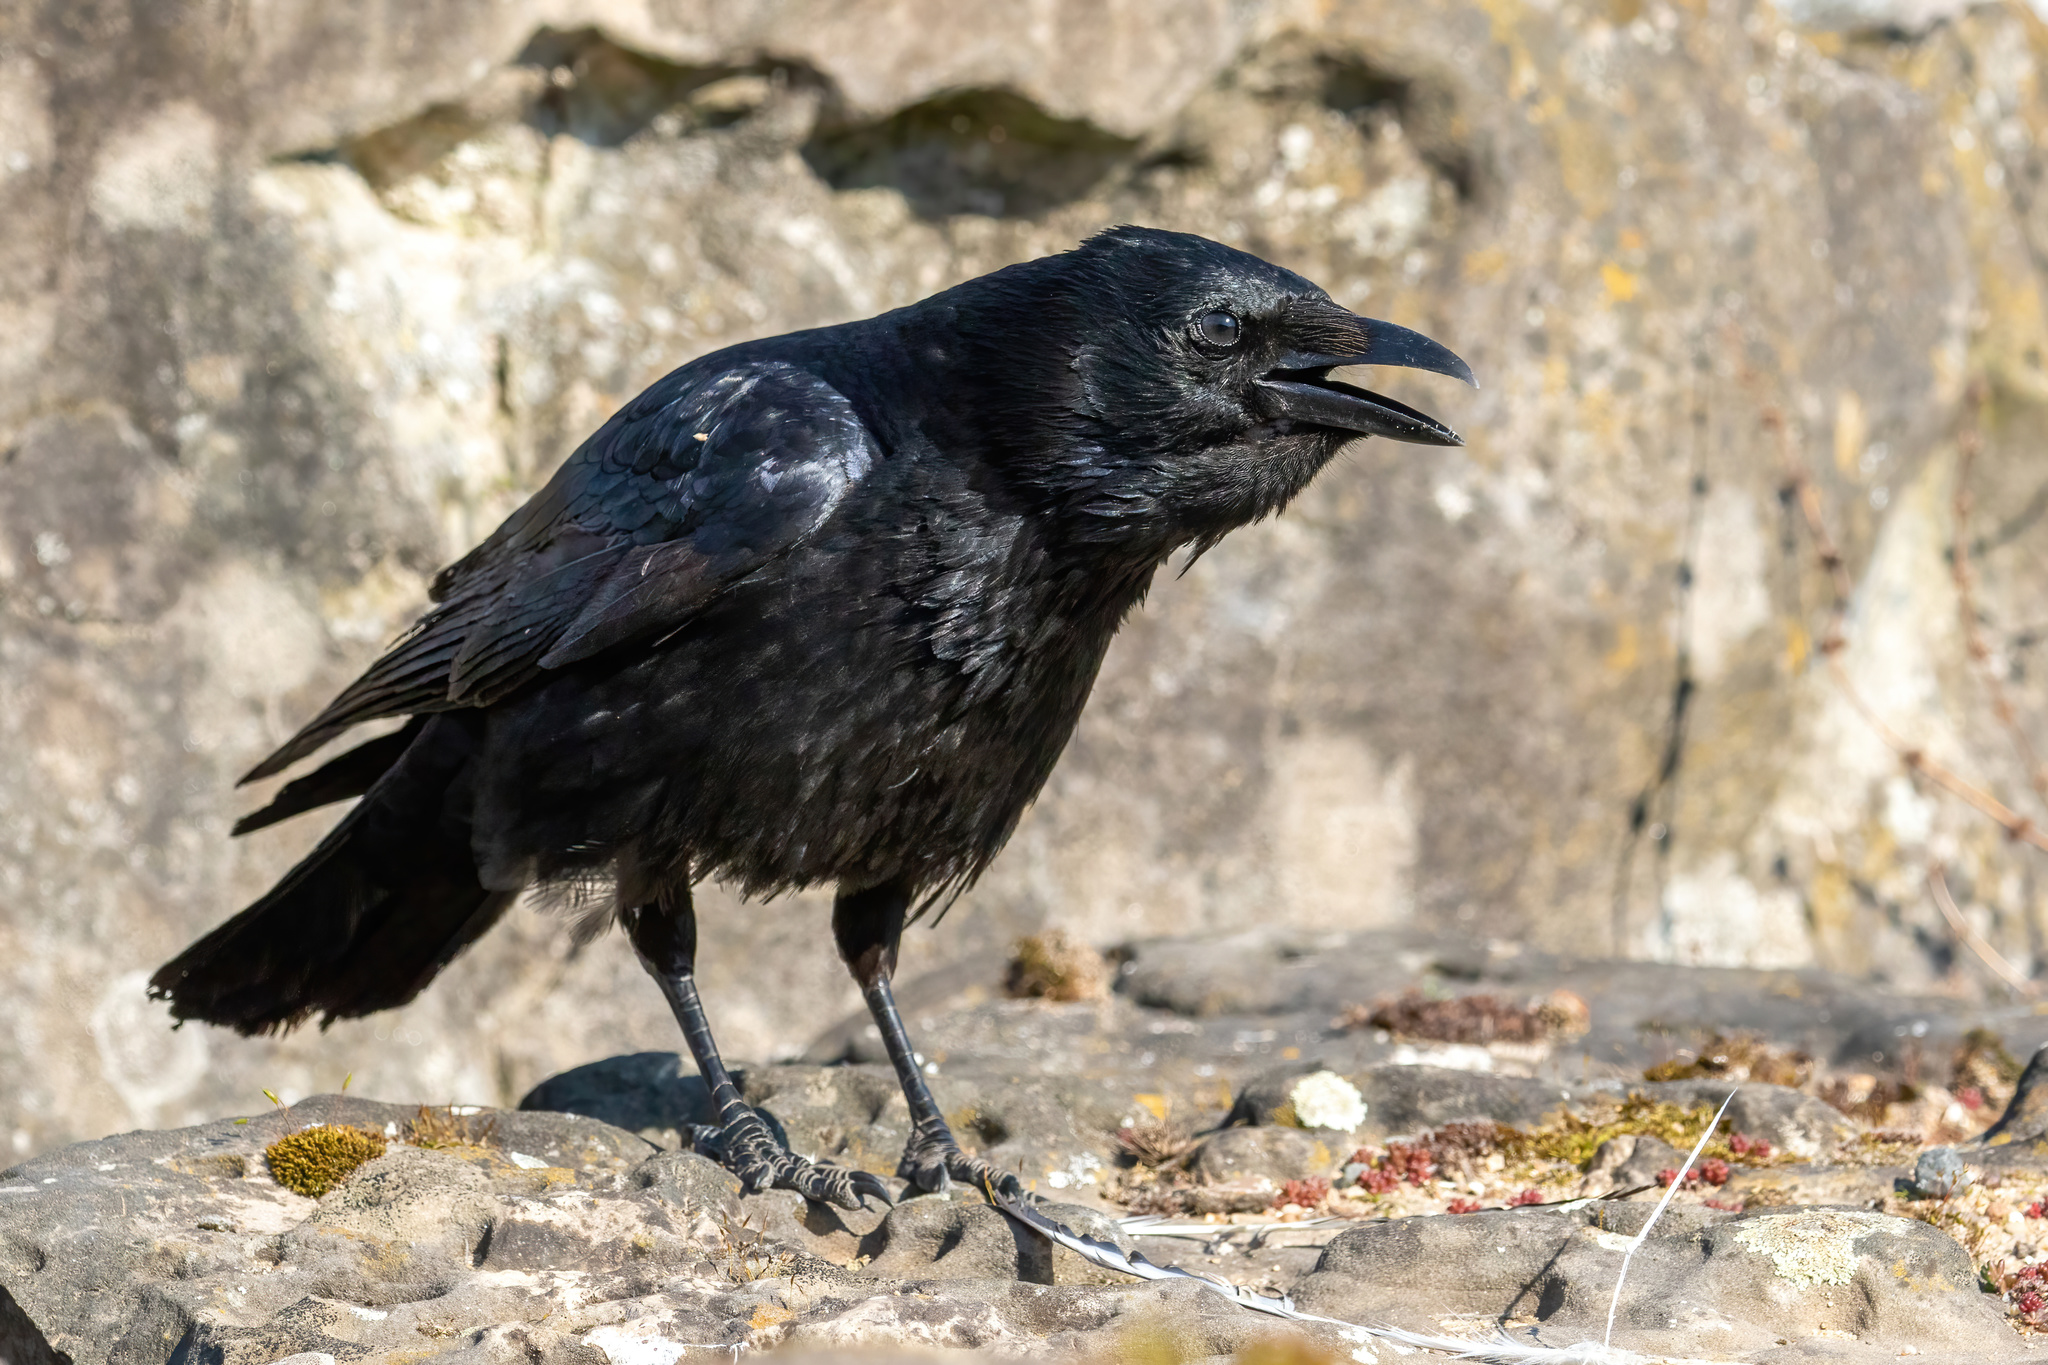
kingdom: Animalia
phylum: Chordata
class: Aves
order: Passeriformes
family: Corvidae
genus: Corvus
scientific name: Corvus corone
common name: Carrion crow
